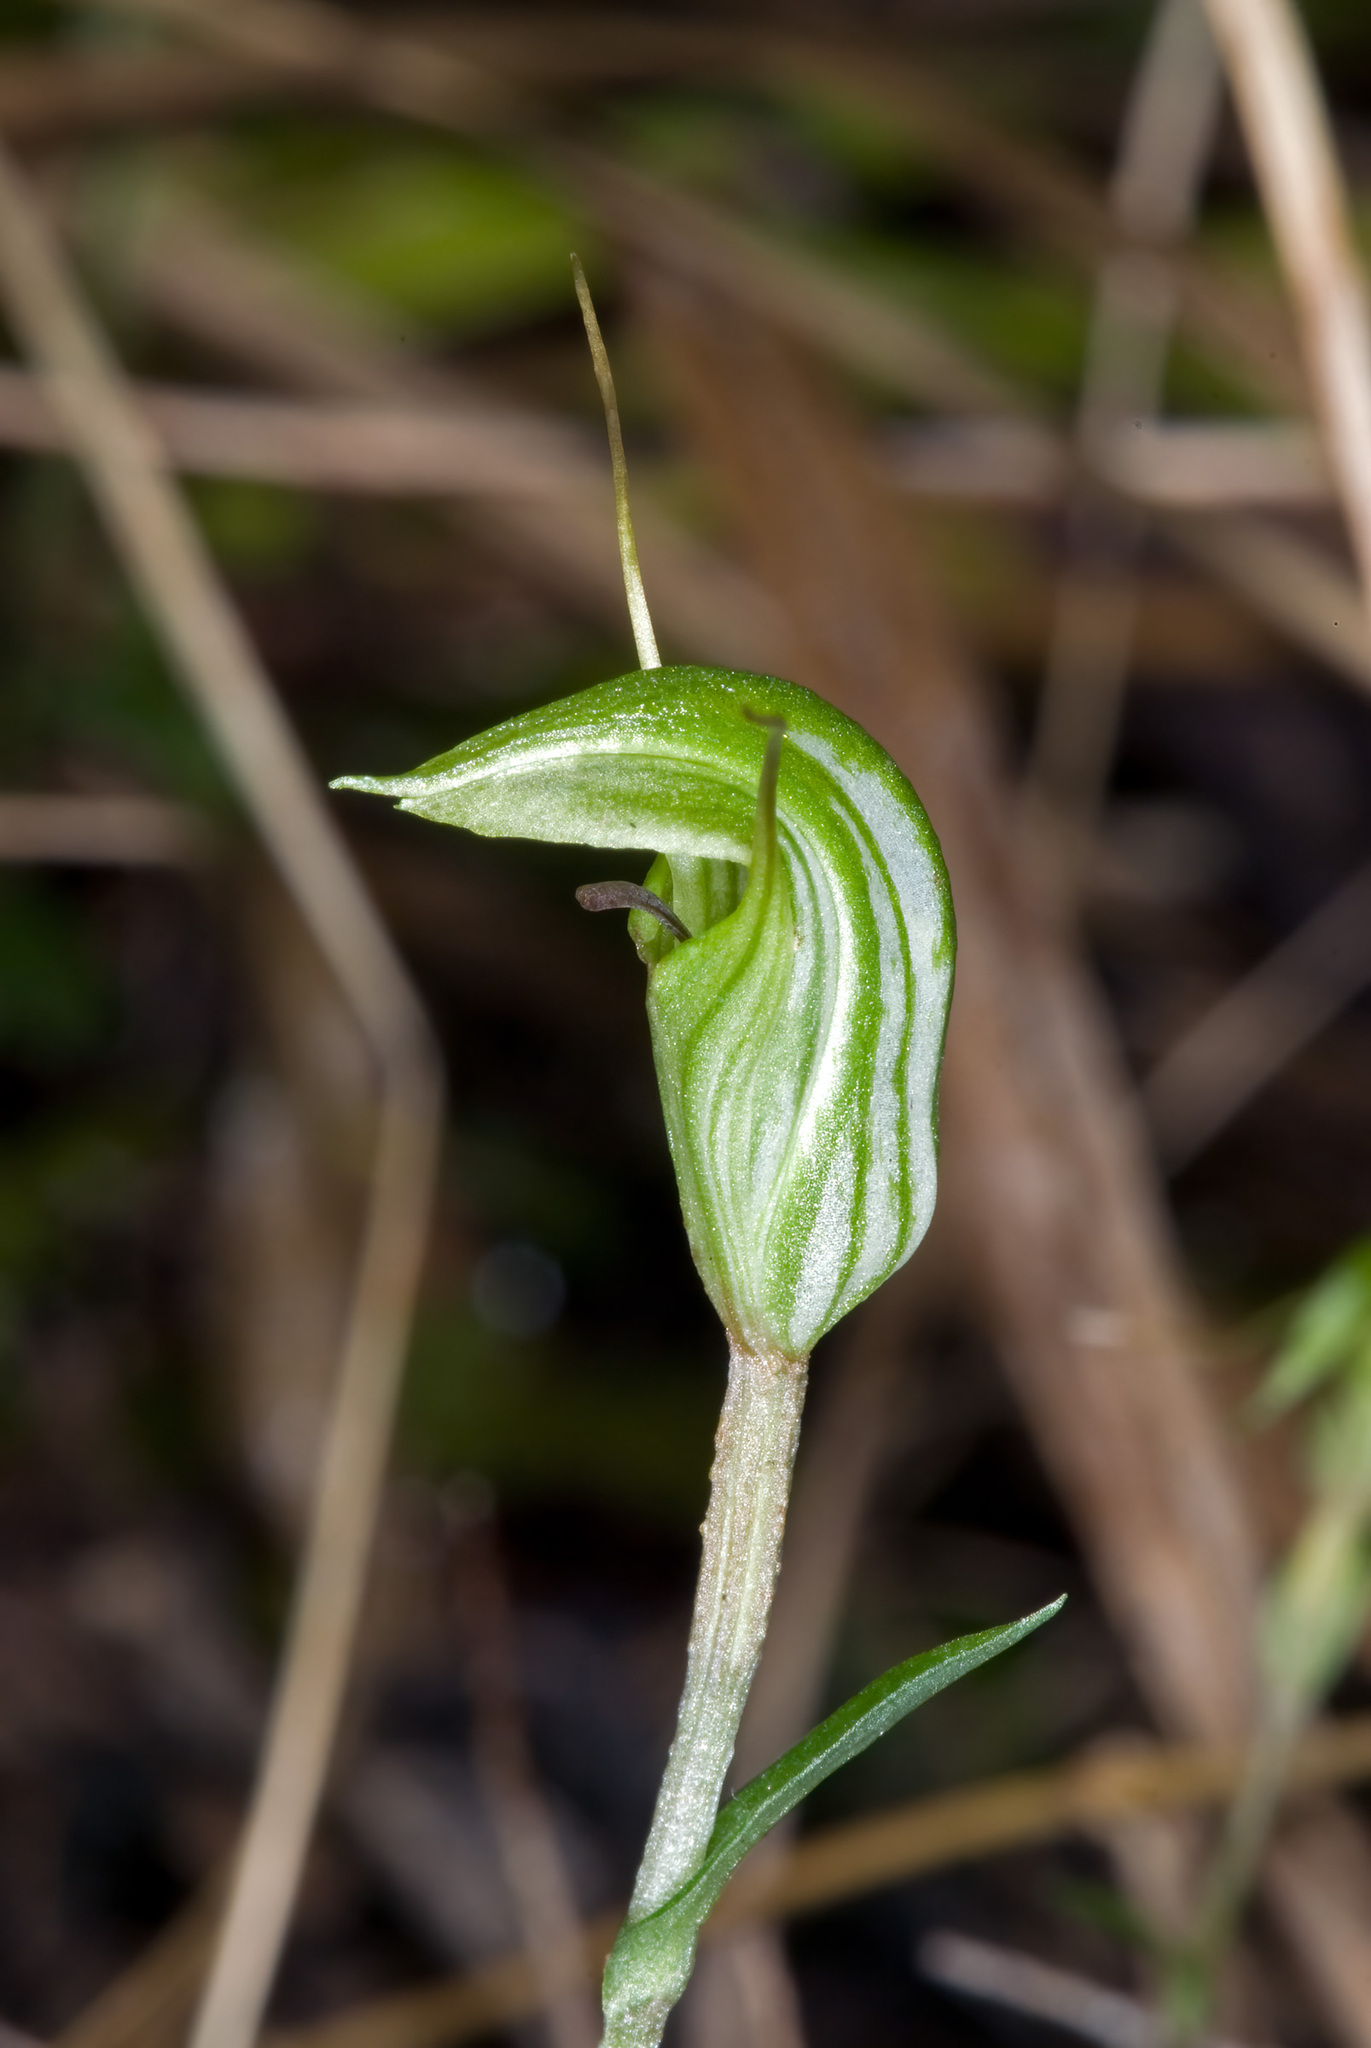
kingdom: Plantae
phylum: Tracheophyta
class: Liliopsida
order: Asparagales
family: Orchidaceae
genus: Pterostylis
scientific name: Pterostylis alobula
